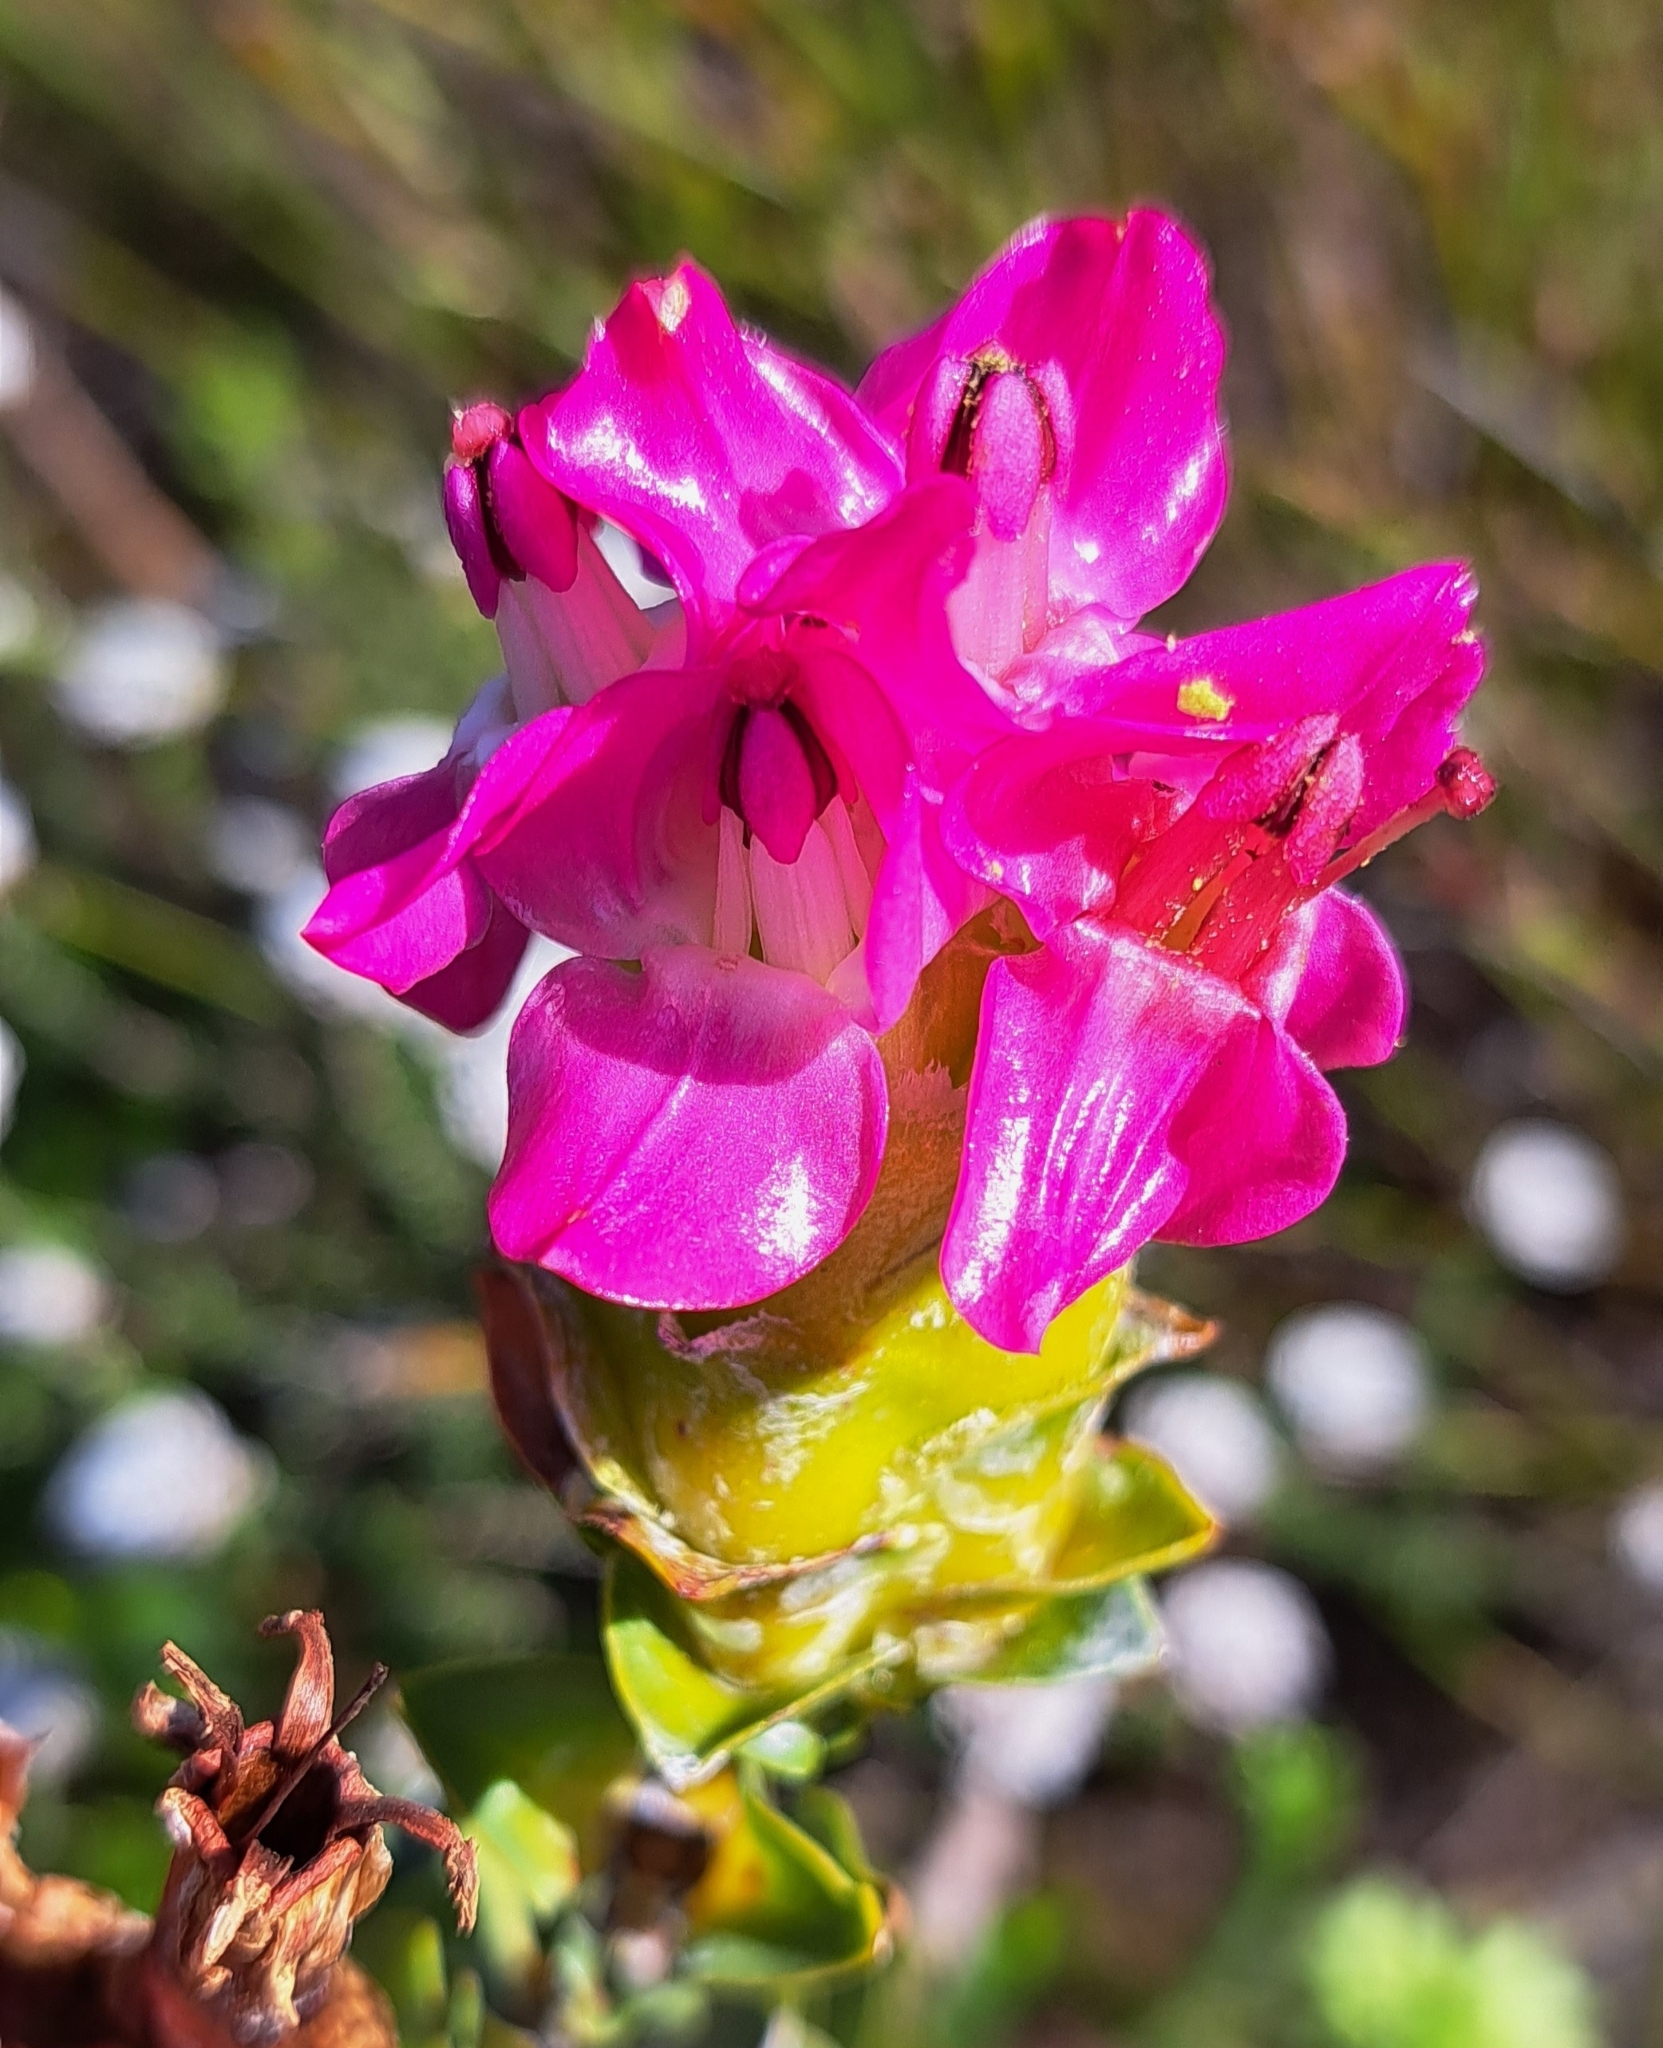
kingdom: Plantae
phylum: Tracheophyta
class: Magnoliopsida
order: Myrtales
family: Penaeaceae
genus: Saltera
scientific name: Saltera sarcocolla
